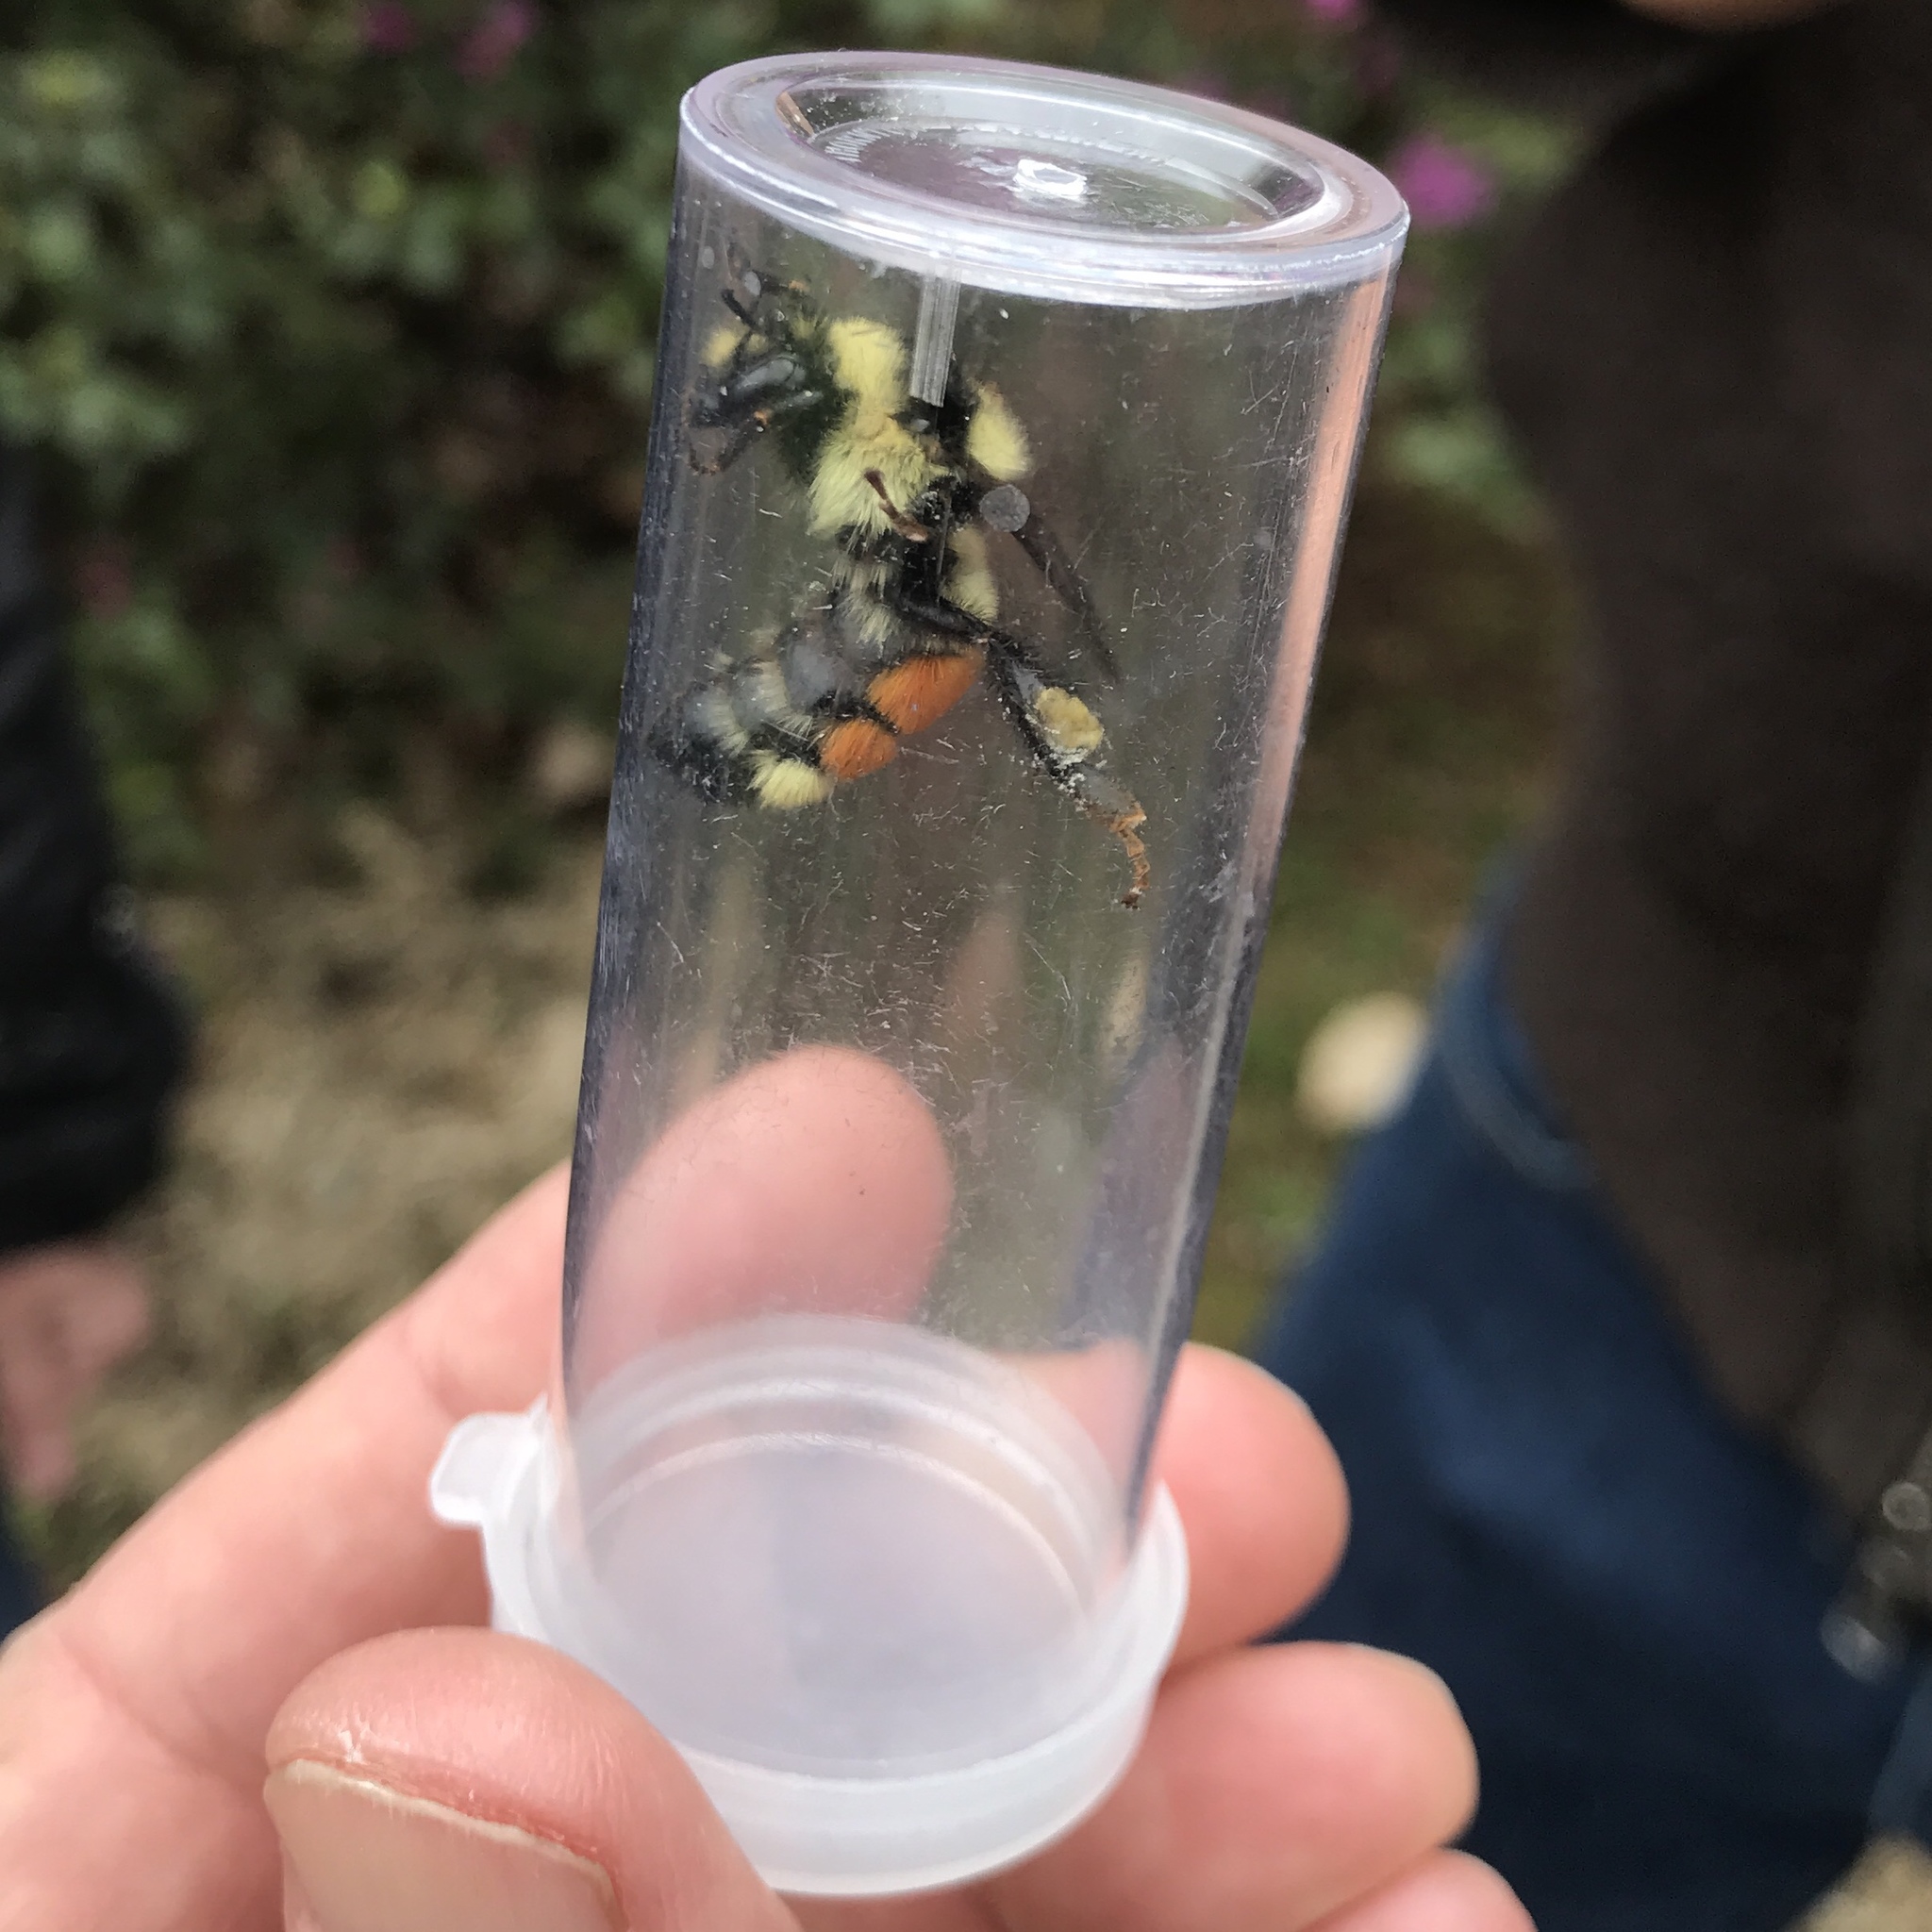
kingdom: Animalia
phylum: Arthropoda
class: Insecta
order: Hymenoptera
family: Apidae
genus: Bombus
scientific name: Bombus ternarius
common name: Tri-colored bumble bee
